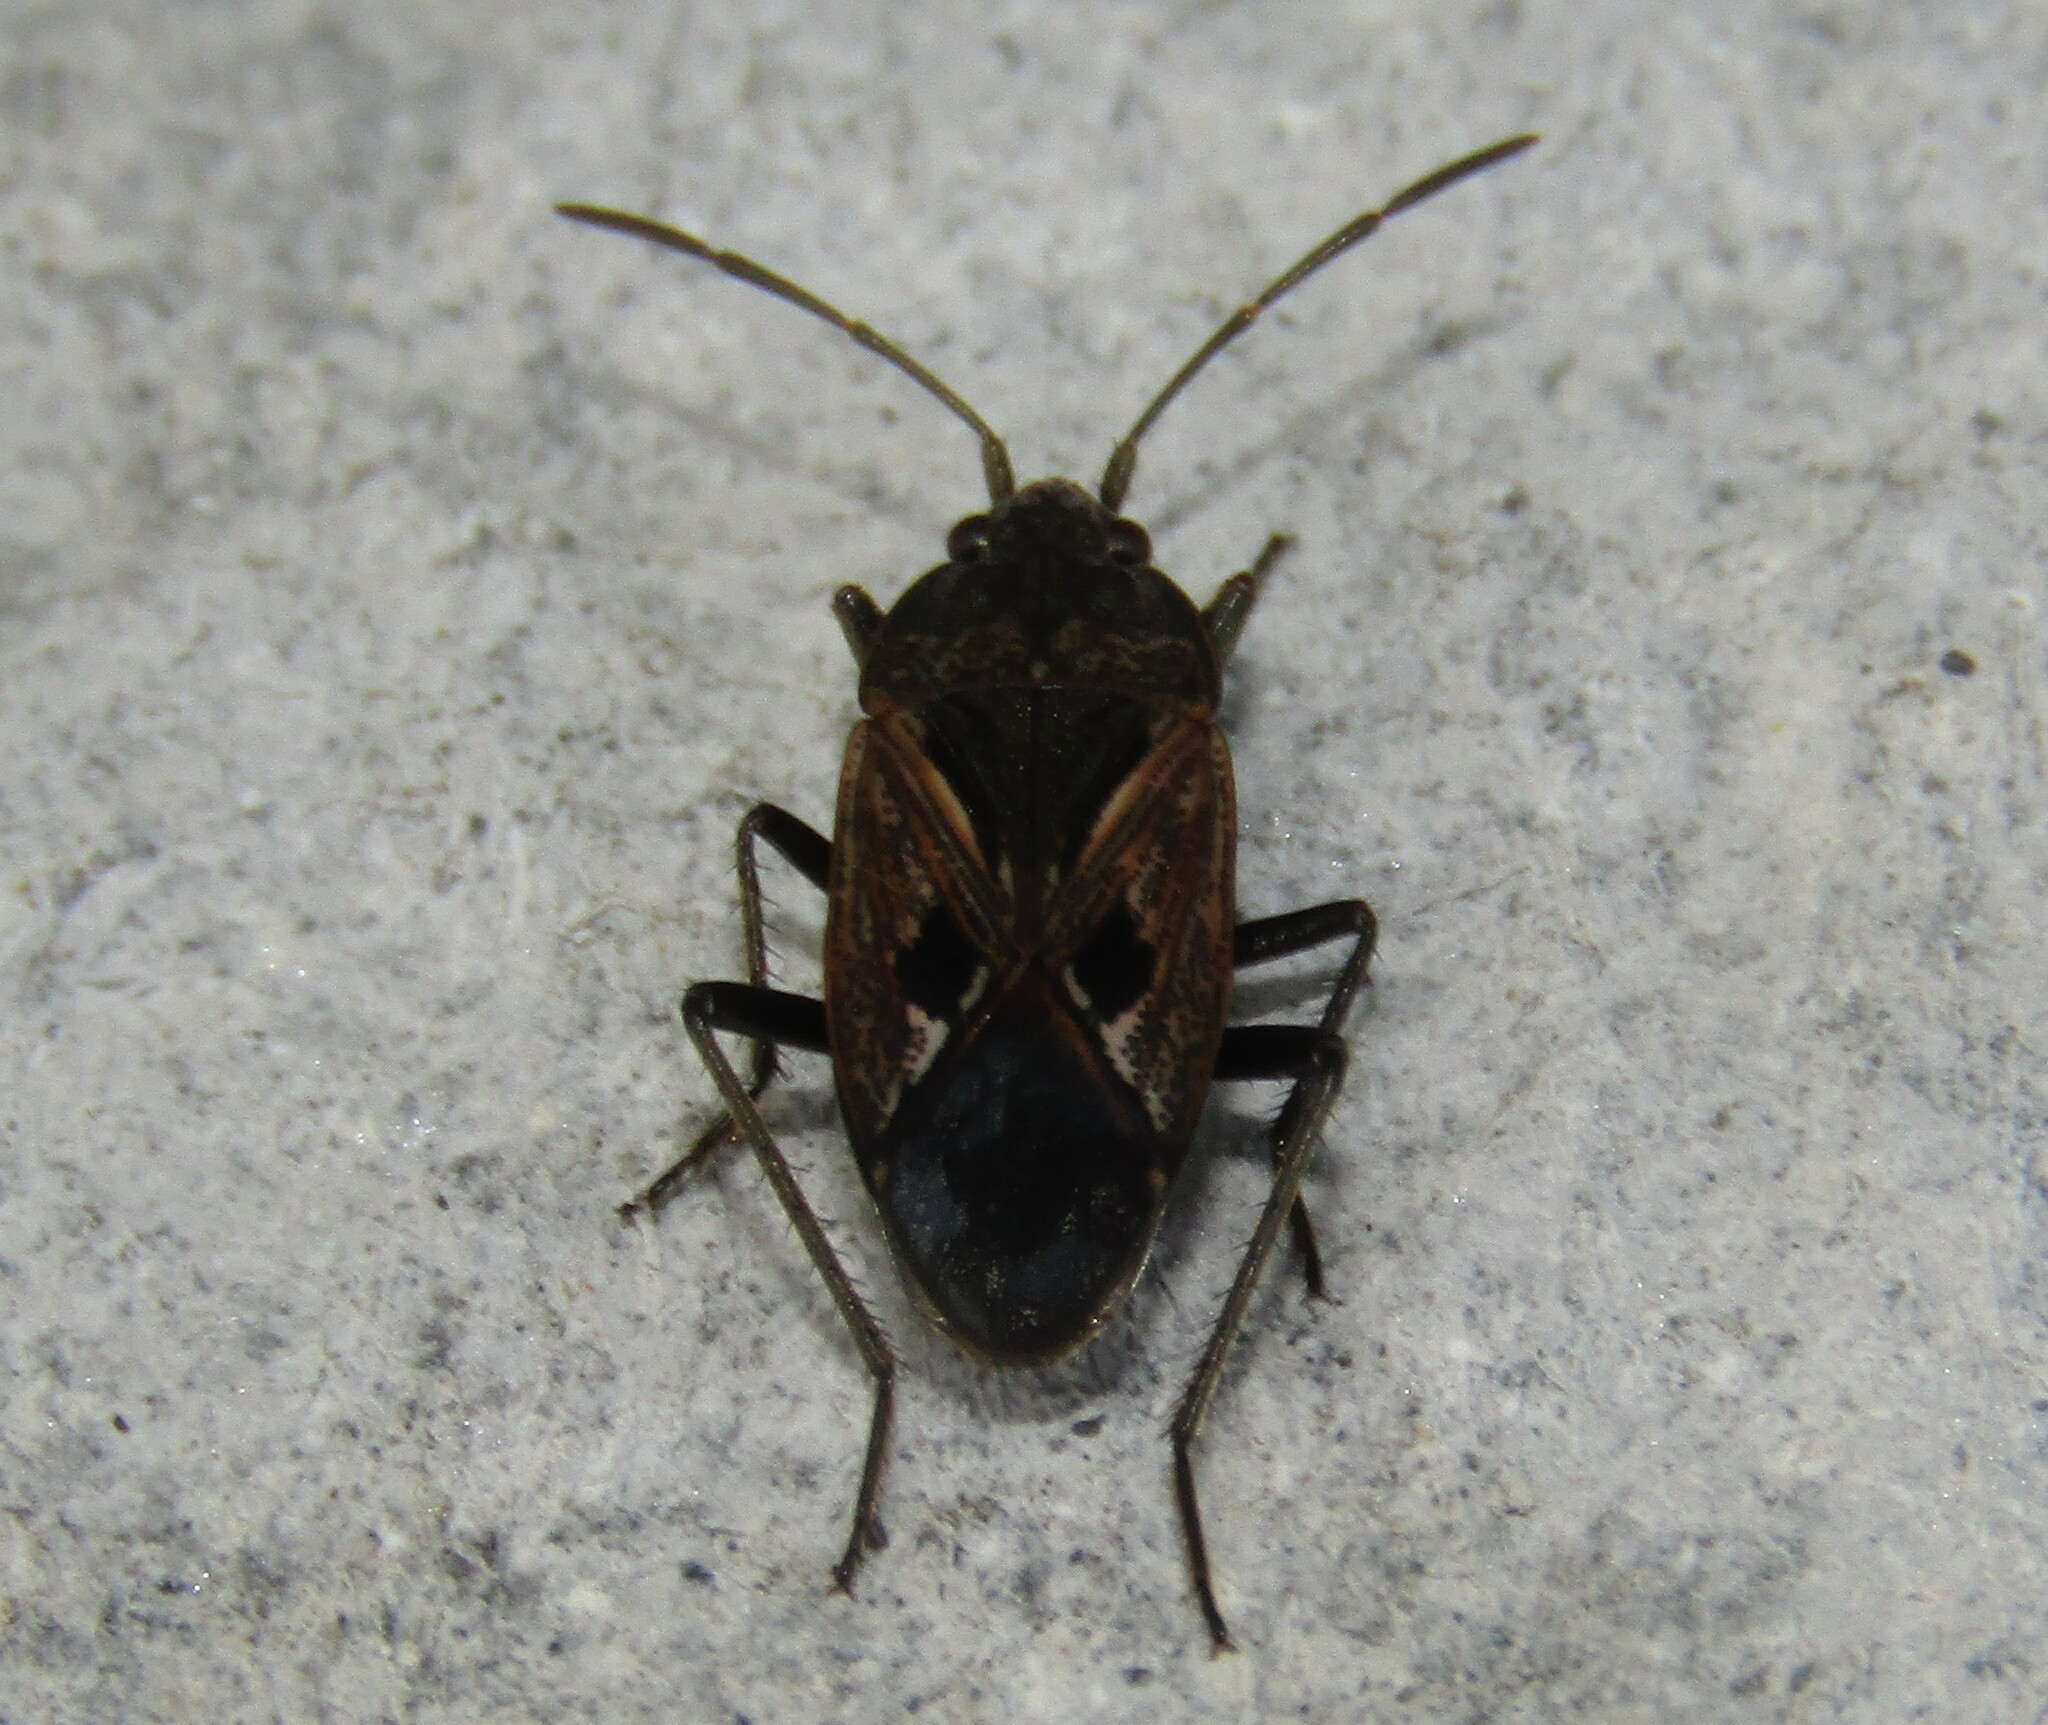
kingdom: Animalia
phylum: Arthropoda
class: Insecta
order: Hemiptera
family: Rhyparochromidae
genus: Rhyparochromus
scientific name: Rhyparochromus pini
